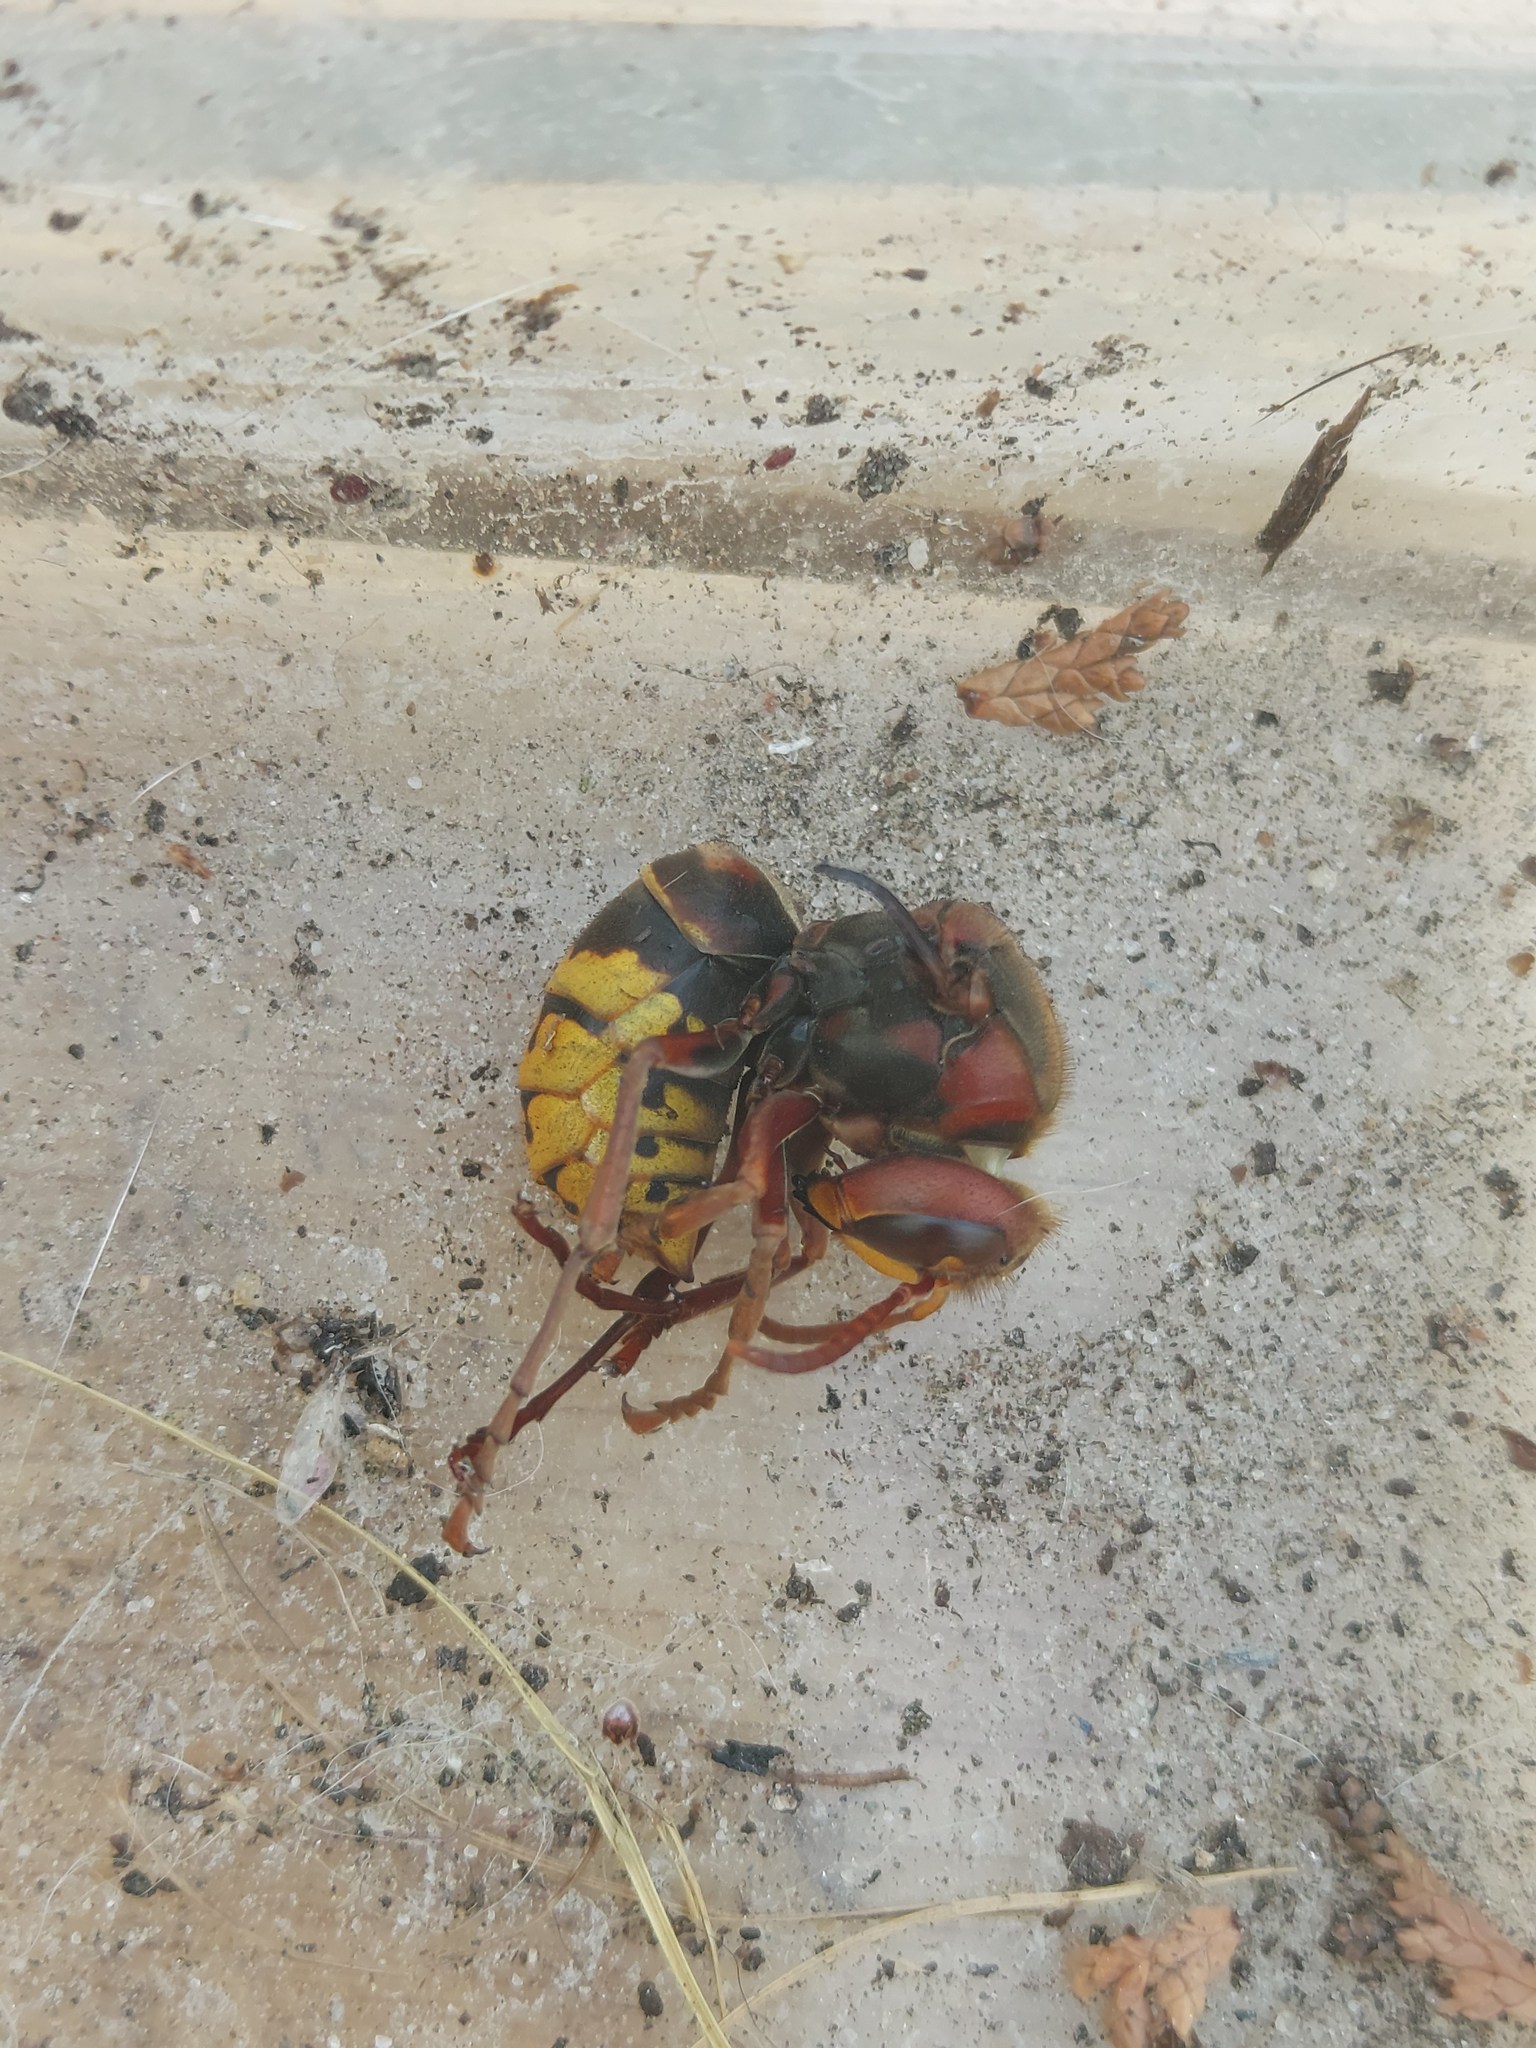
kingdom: Animalia
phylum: Arthropoda
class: Insecta
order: Hymenoptera
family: Vespidae
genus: Vespa
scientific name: Vespa crabro
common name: Hornet
